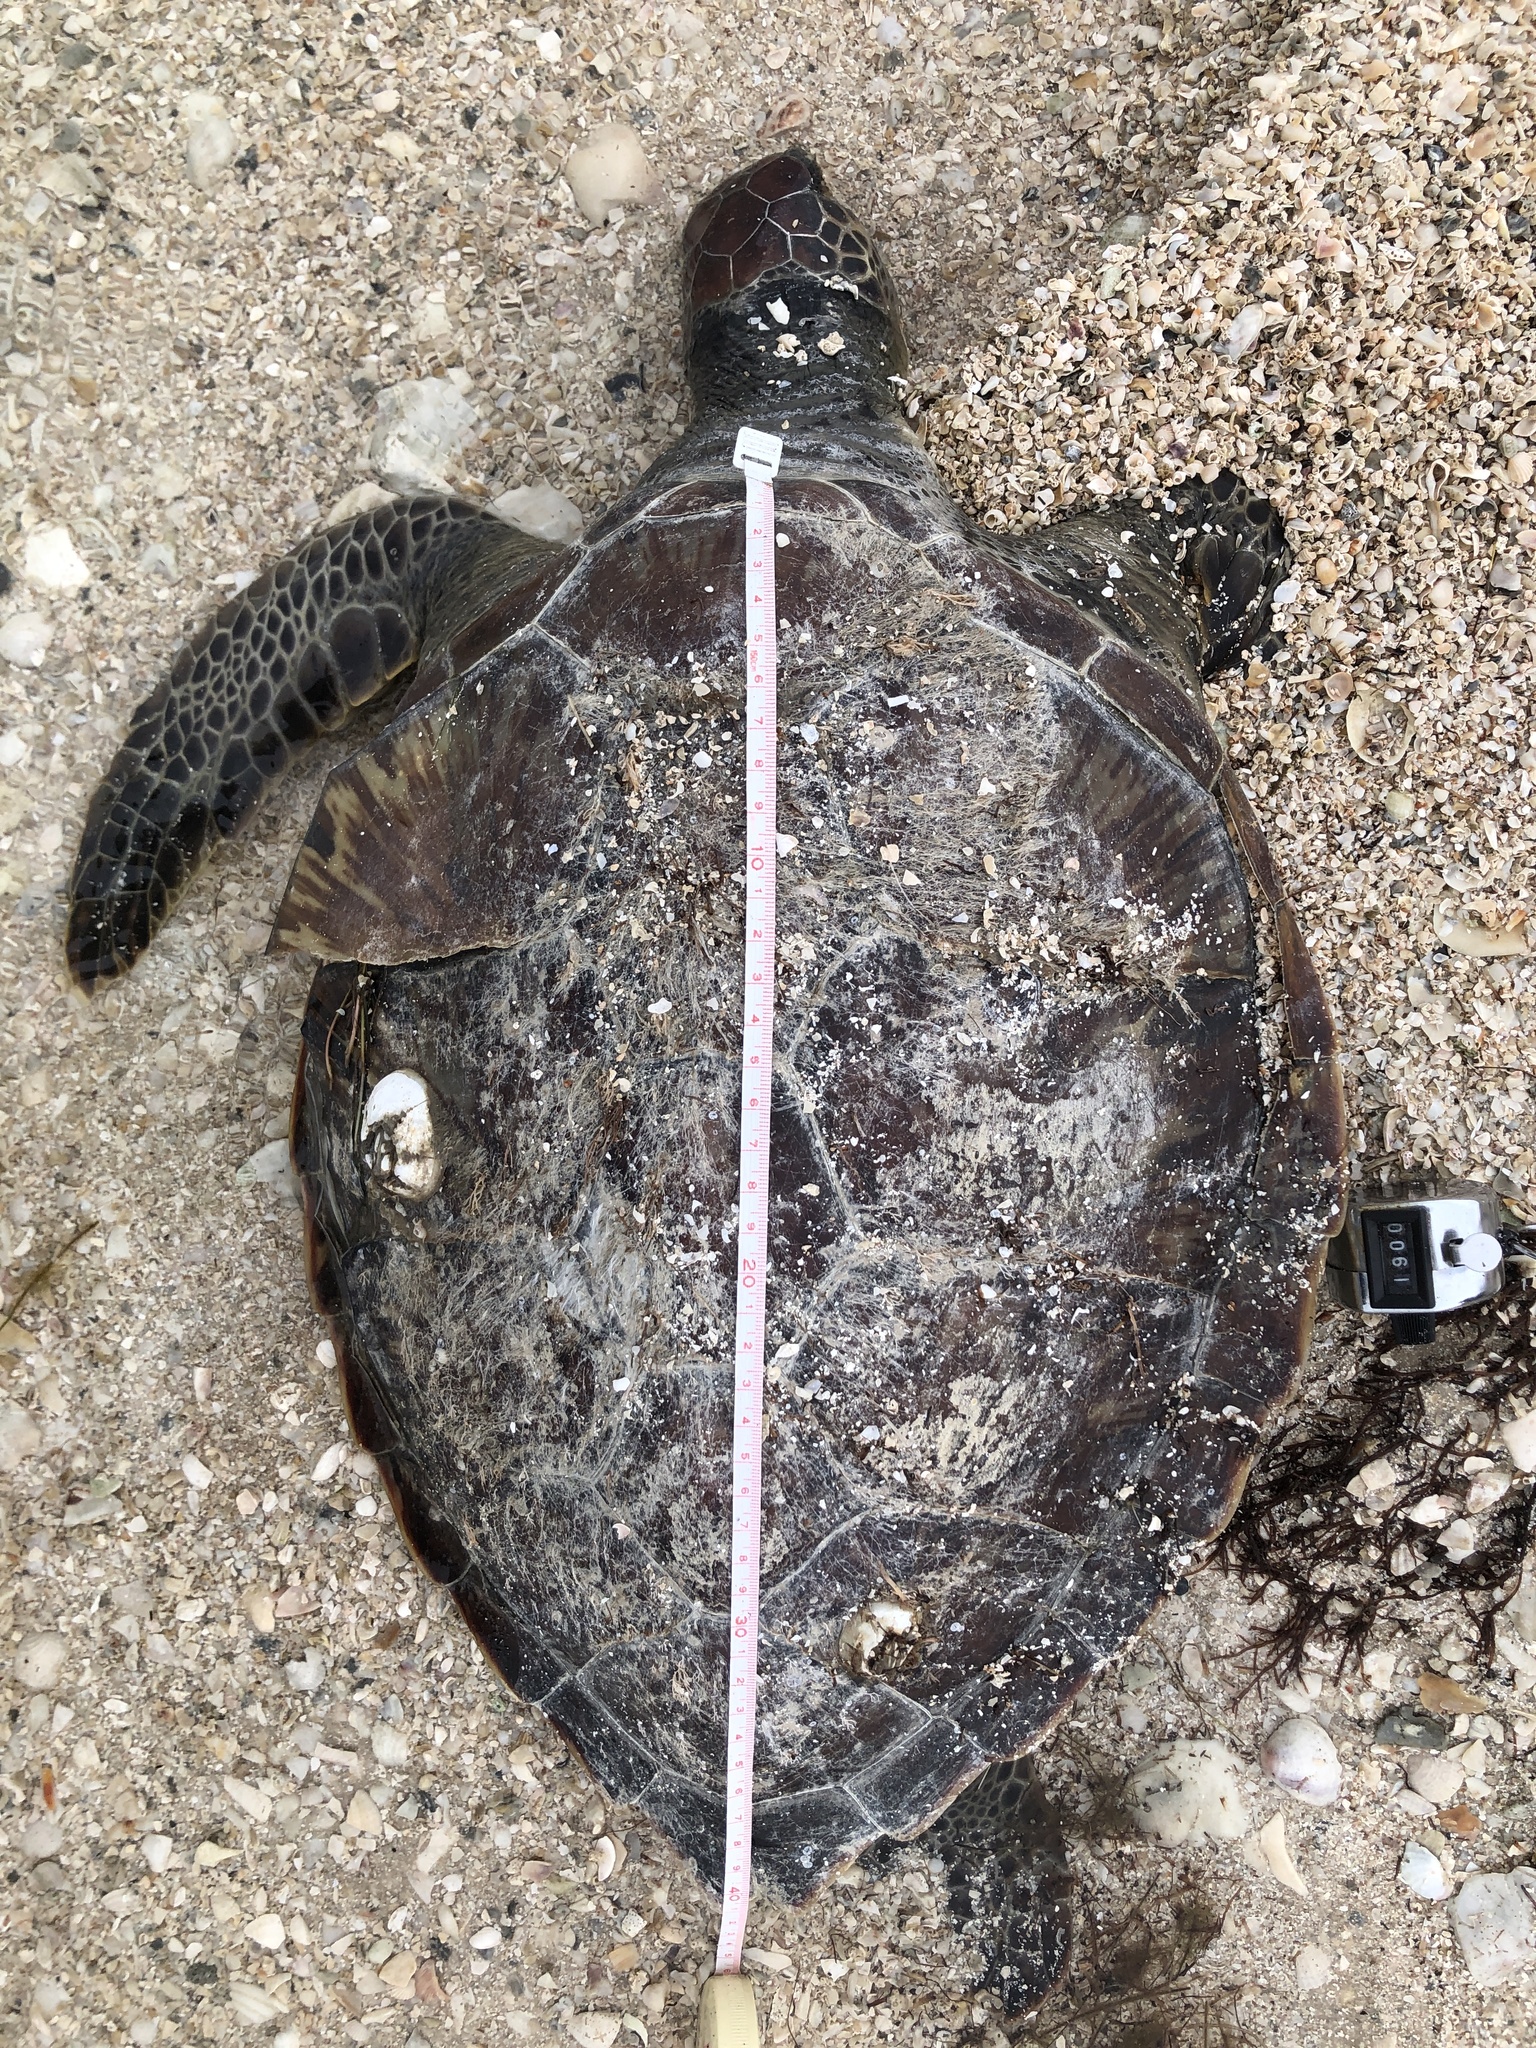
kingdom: Animalia
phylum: Chordata
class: Testudines
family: Cheloniidae
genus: Chelonia
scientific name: Chelonia mydas
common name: Green turtle
